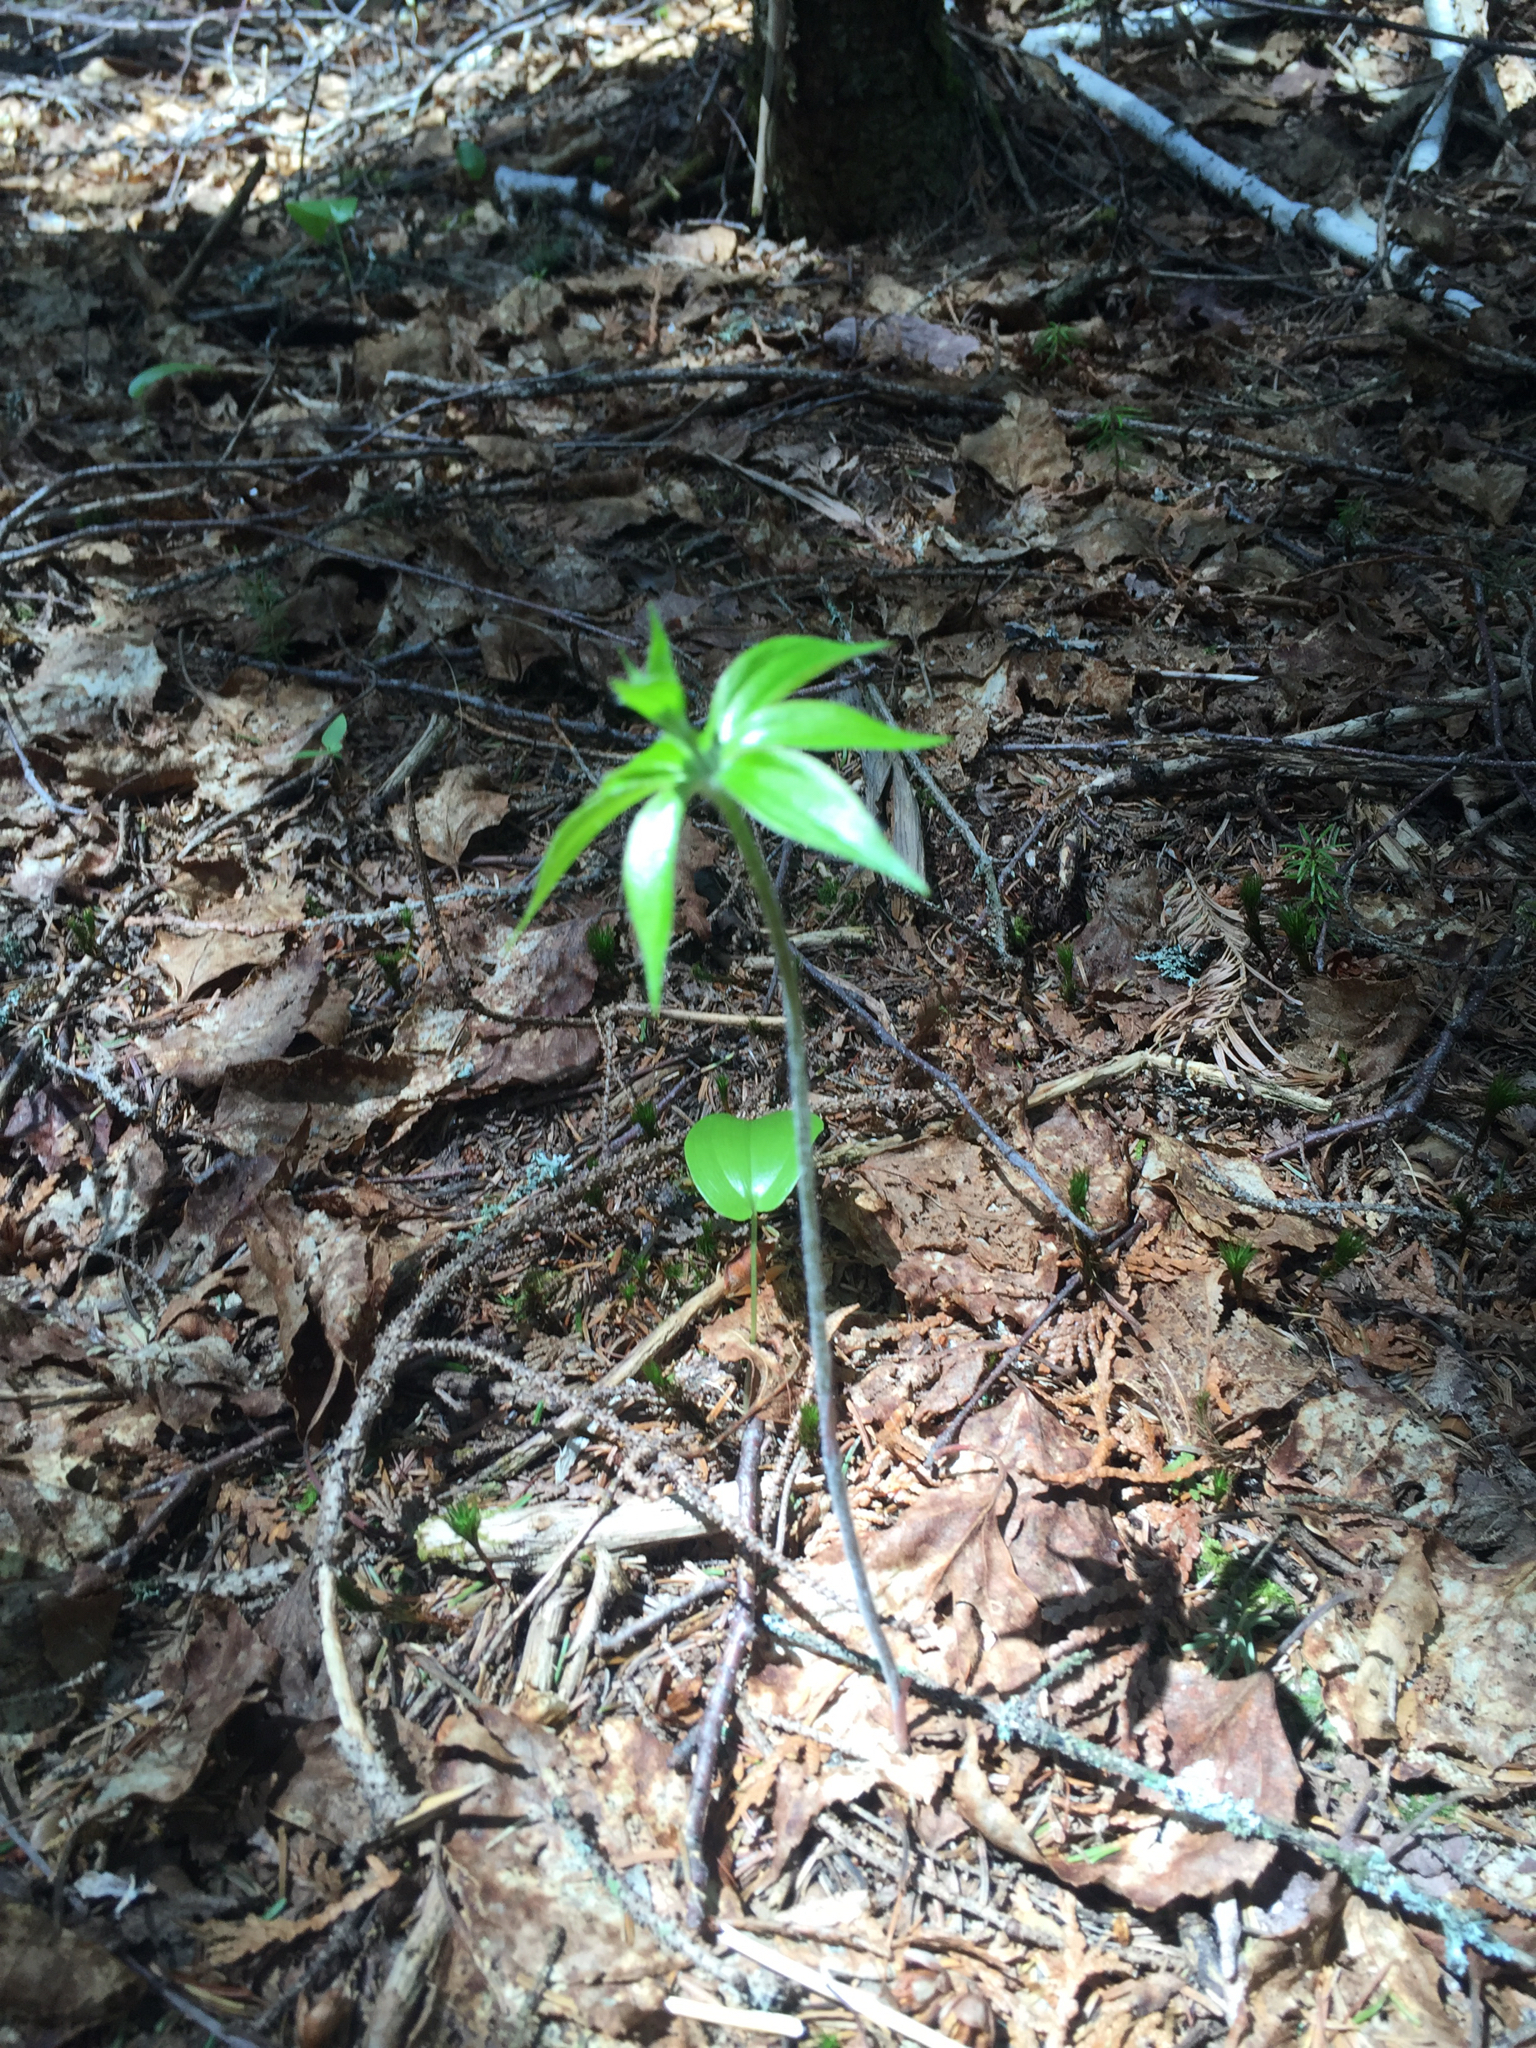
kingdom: Plantae
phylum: Tracheophyta
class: Liliopsida
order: Liliales
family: Liliaceae
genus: Medeola
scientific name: Medeola virginiana
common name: Indian cucumber-root
